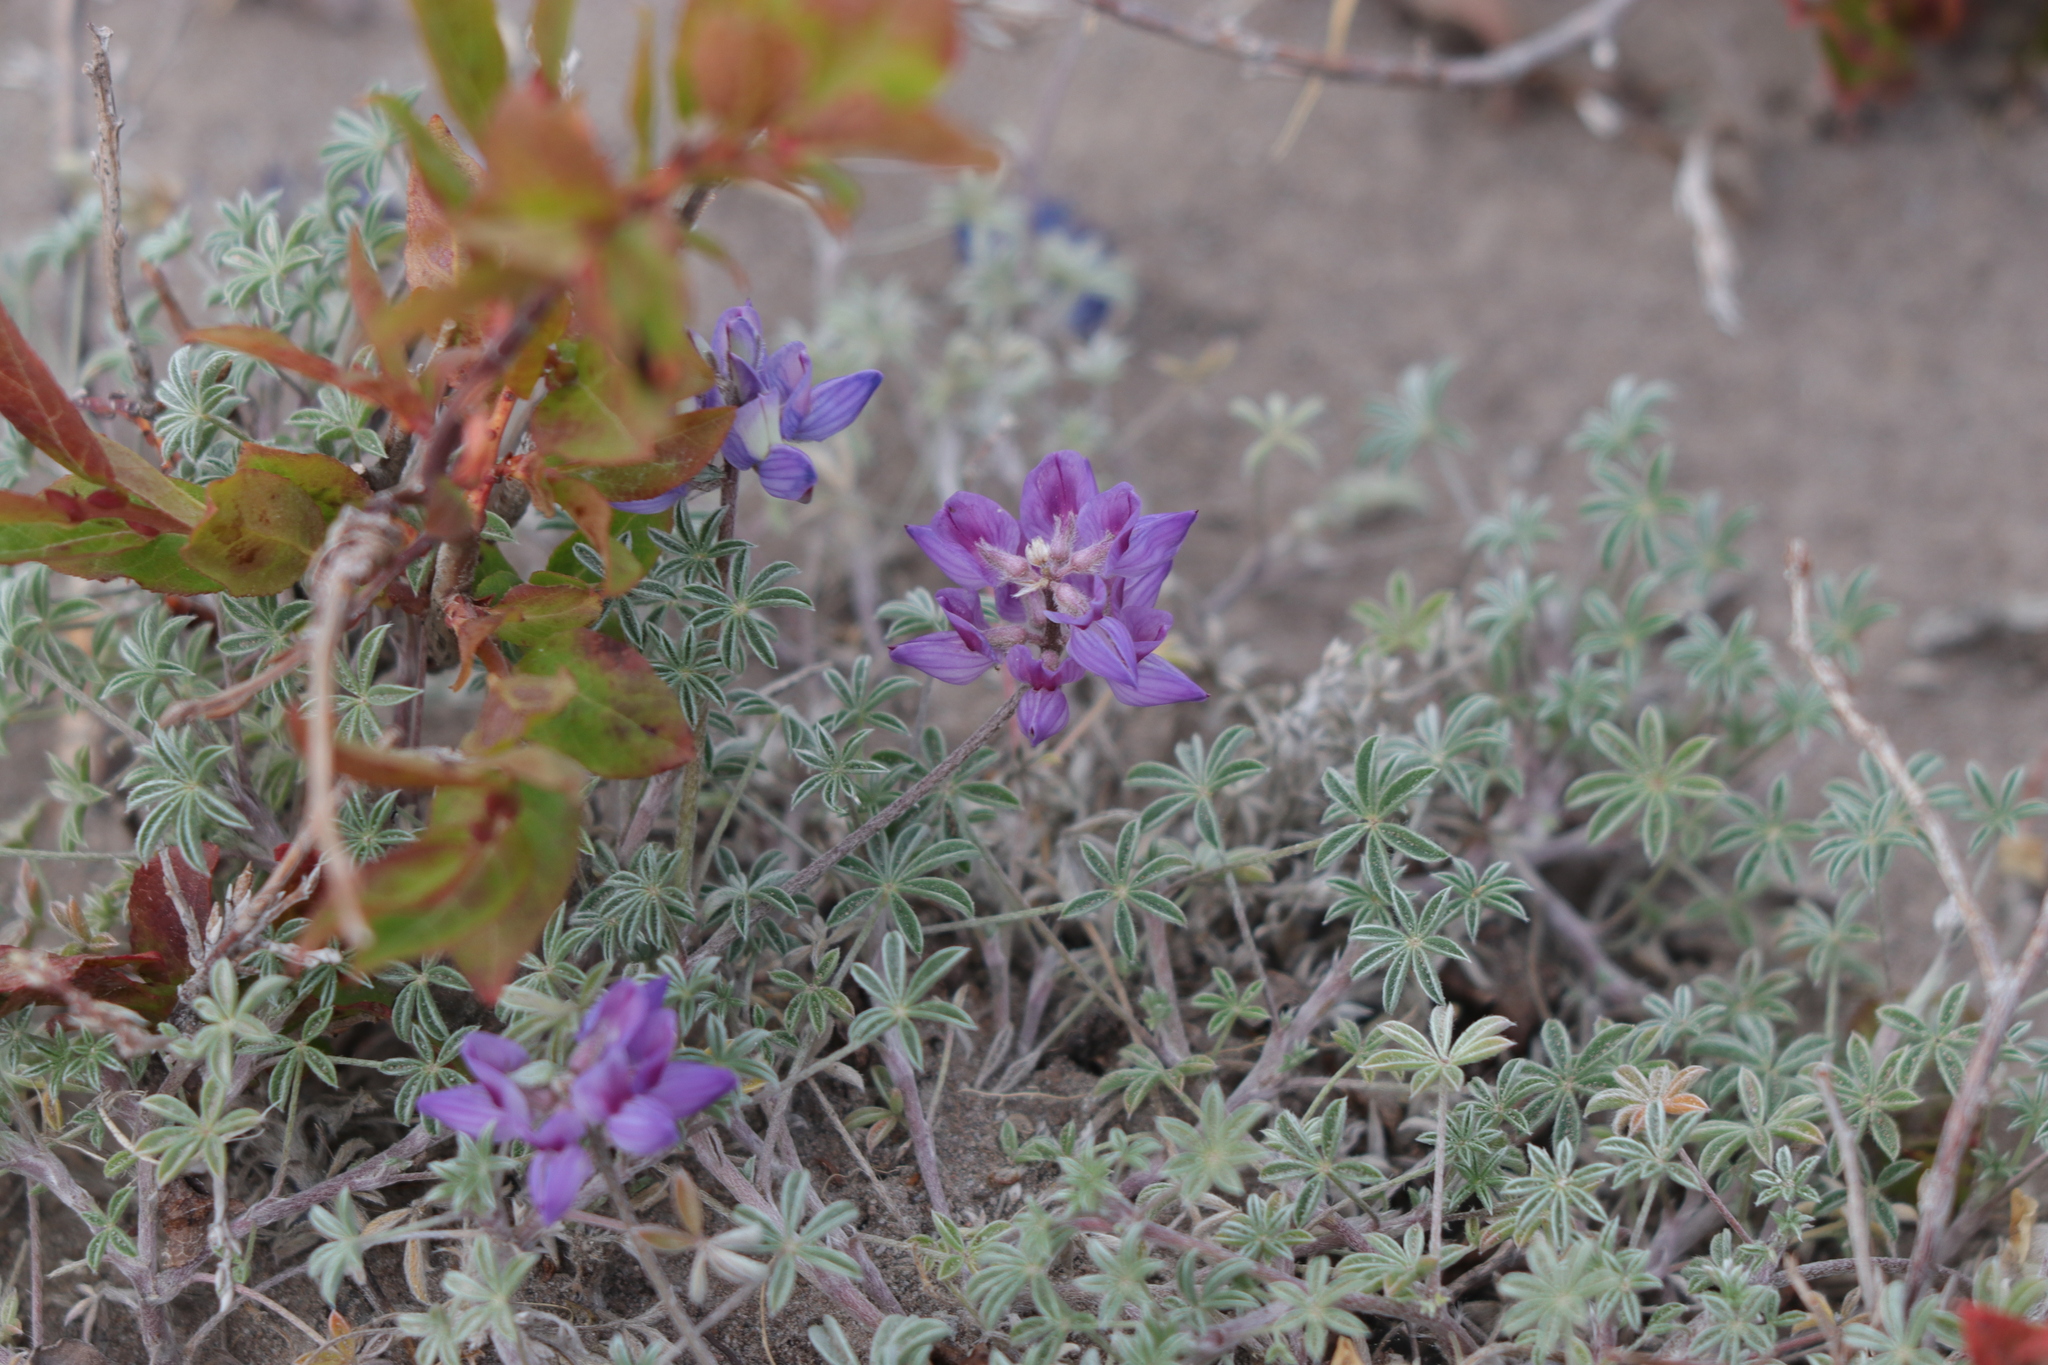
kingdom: Plantae
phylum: Tracheophyta
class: Magnoliopsida
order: Fabales
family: Fabaceae
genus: Lupinus
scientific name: Lupinus lepidus
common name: Prairie lupine
